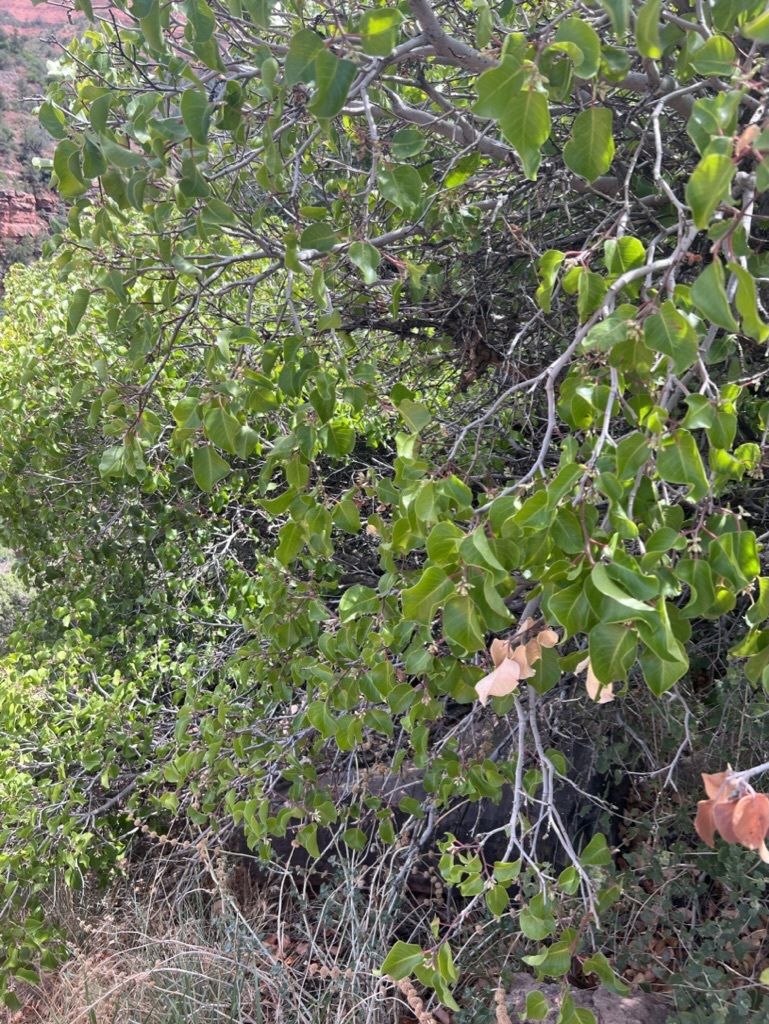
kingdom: Plantae
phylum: Tracheophyta
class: Magnoliopsida
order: Sapindales
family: Anacardiaceae
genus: Rhus
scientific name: Rhus ovata
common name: Sugar sumac
